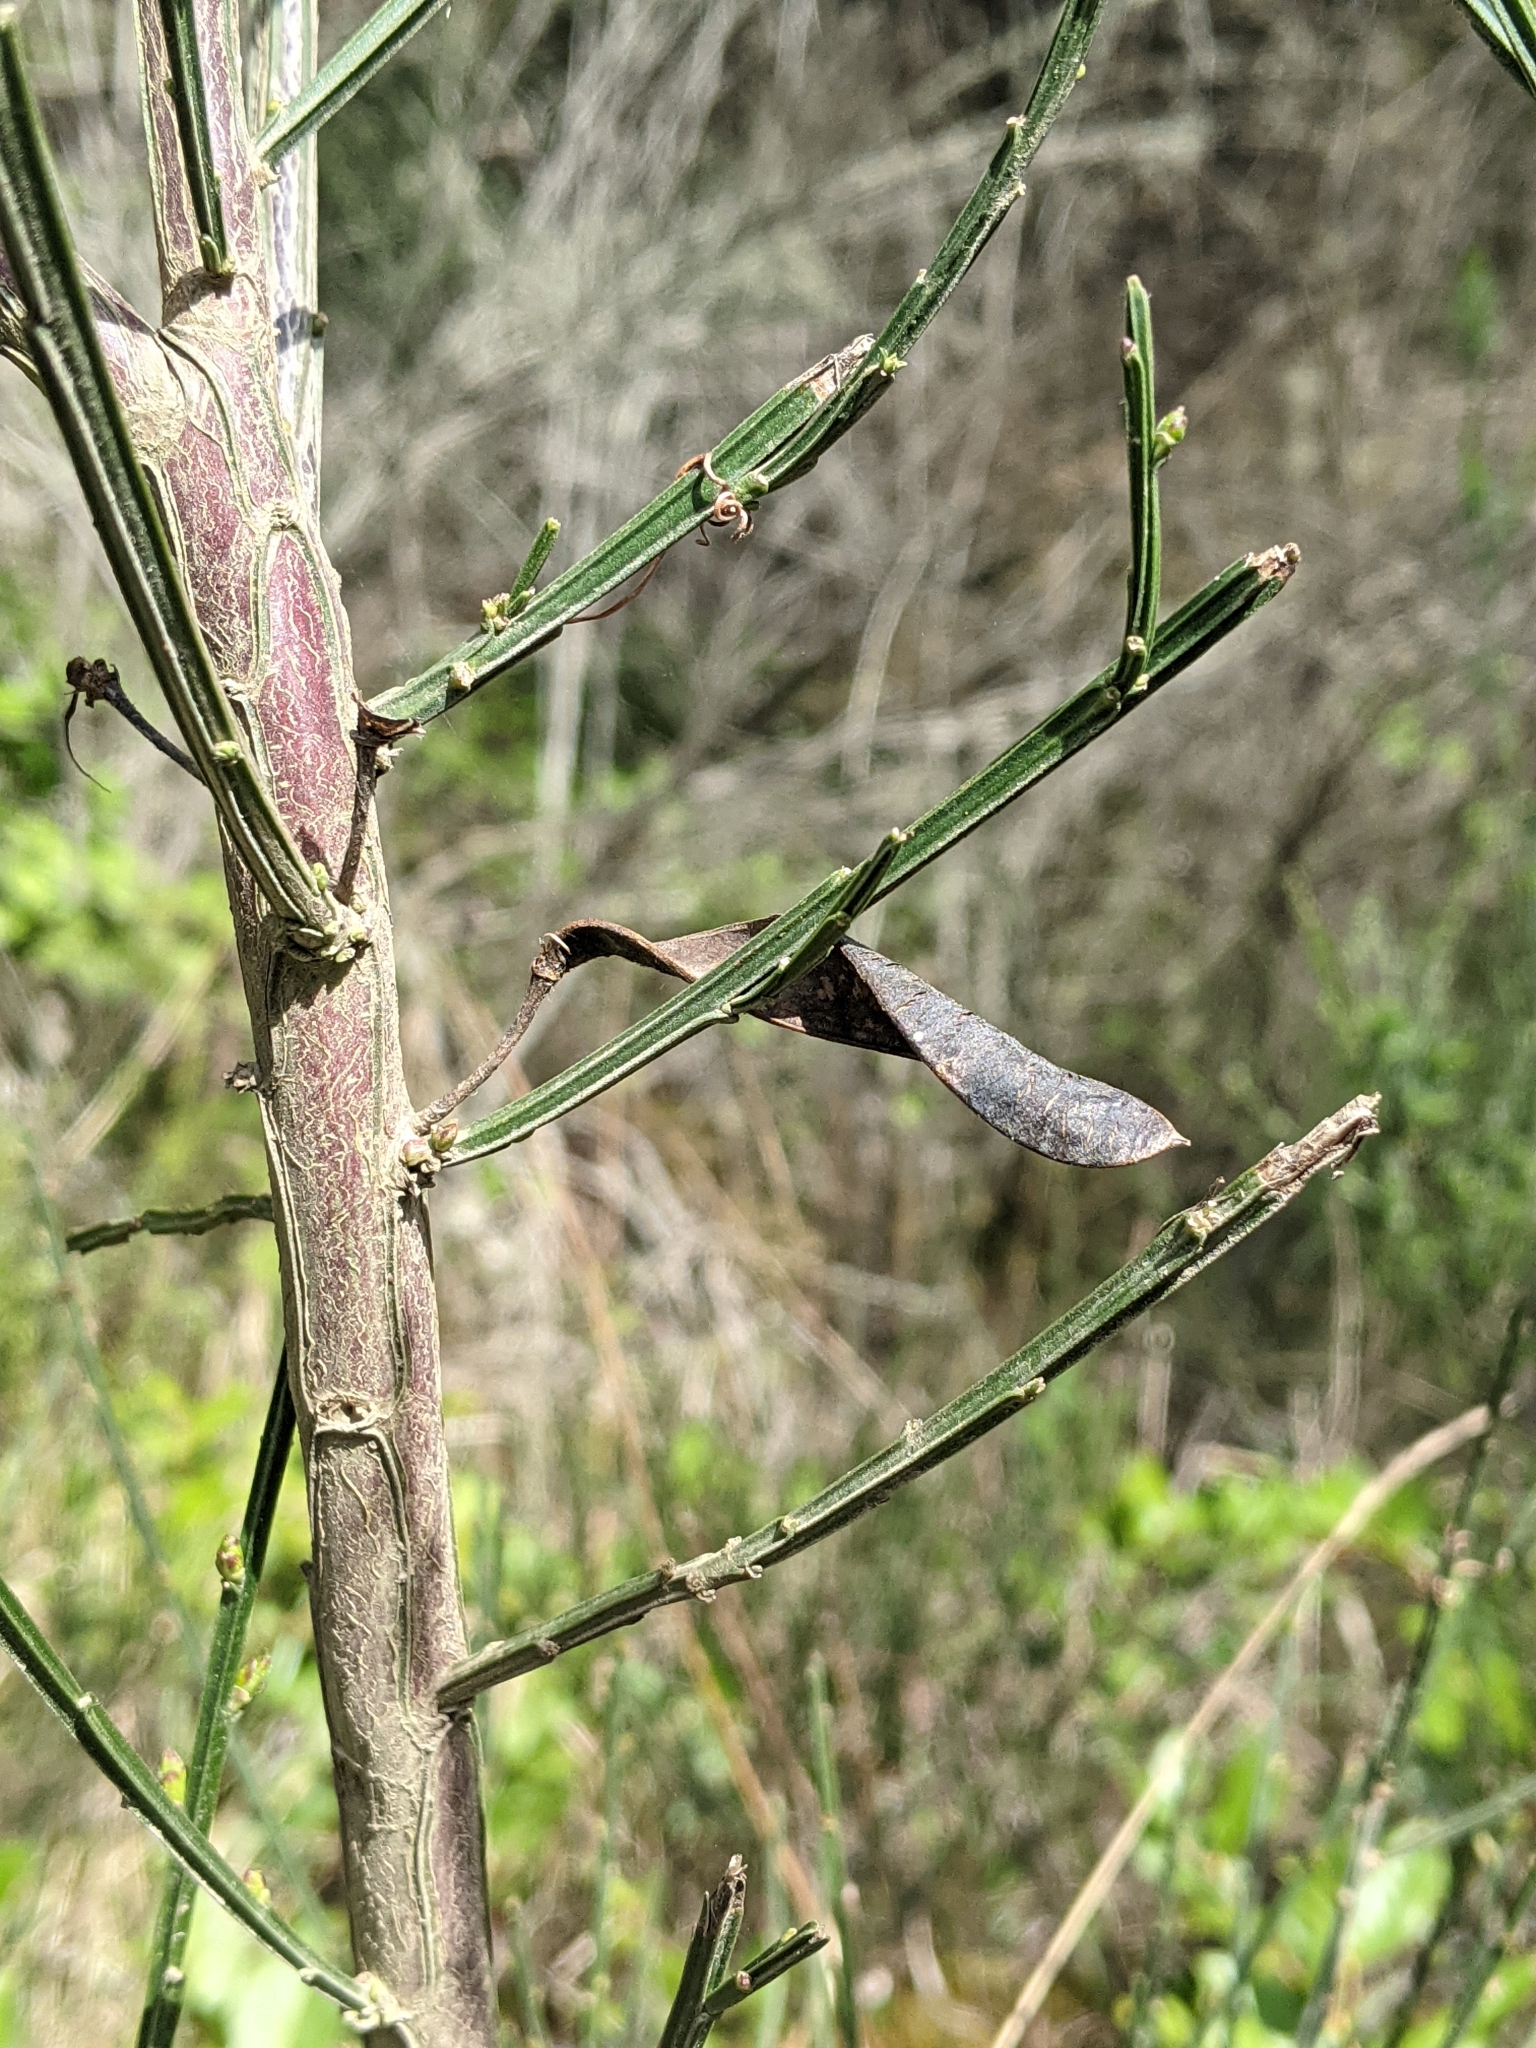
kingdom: Plantae
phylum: Tracheophyta
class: Magnoliopsida
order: Fabales
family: Fabaceae
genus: Cytisus
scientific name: Cytisus scoparius
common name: Scotch broom
